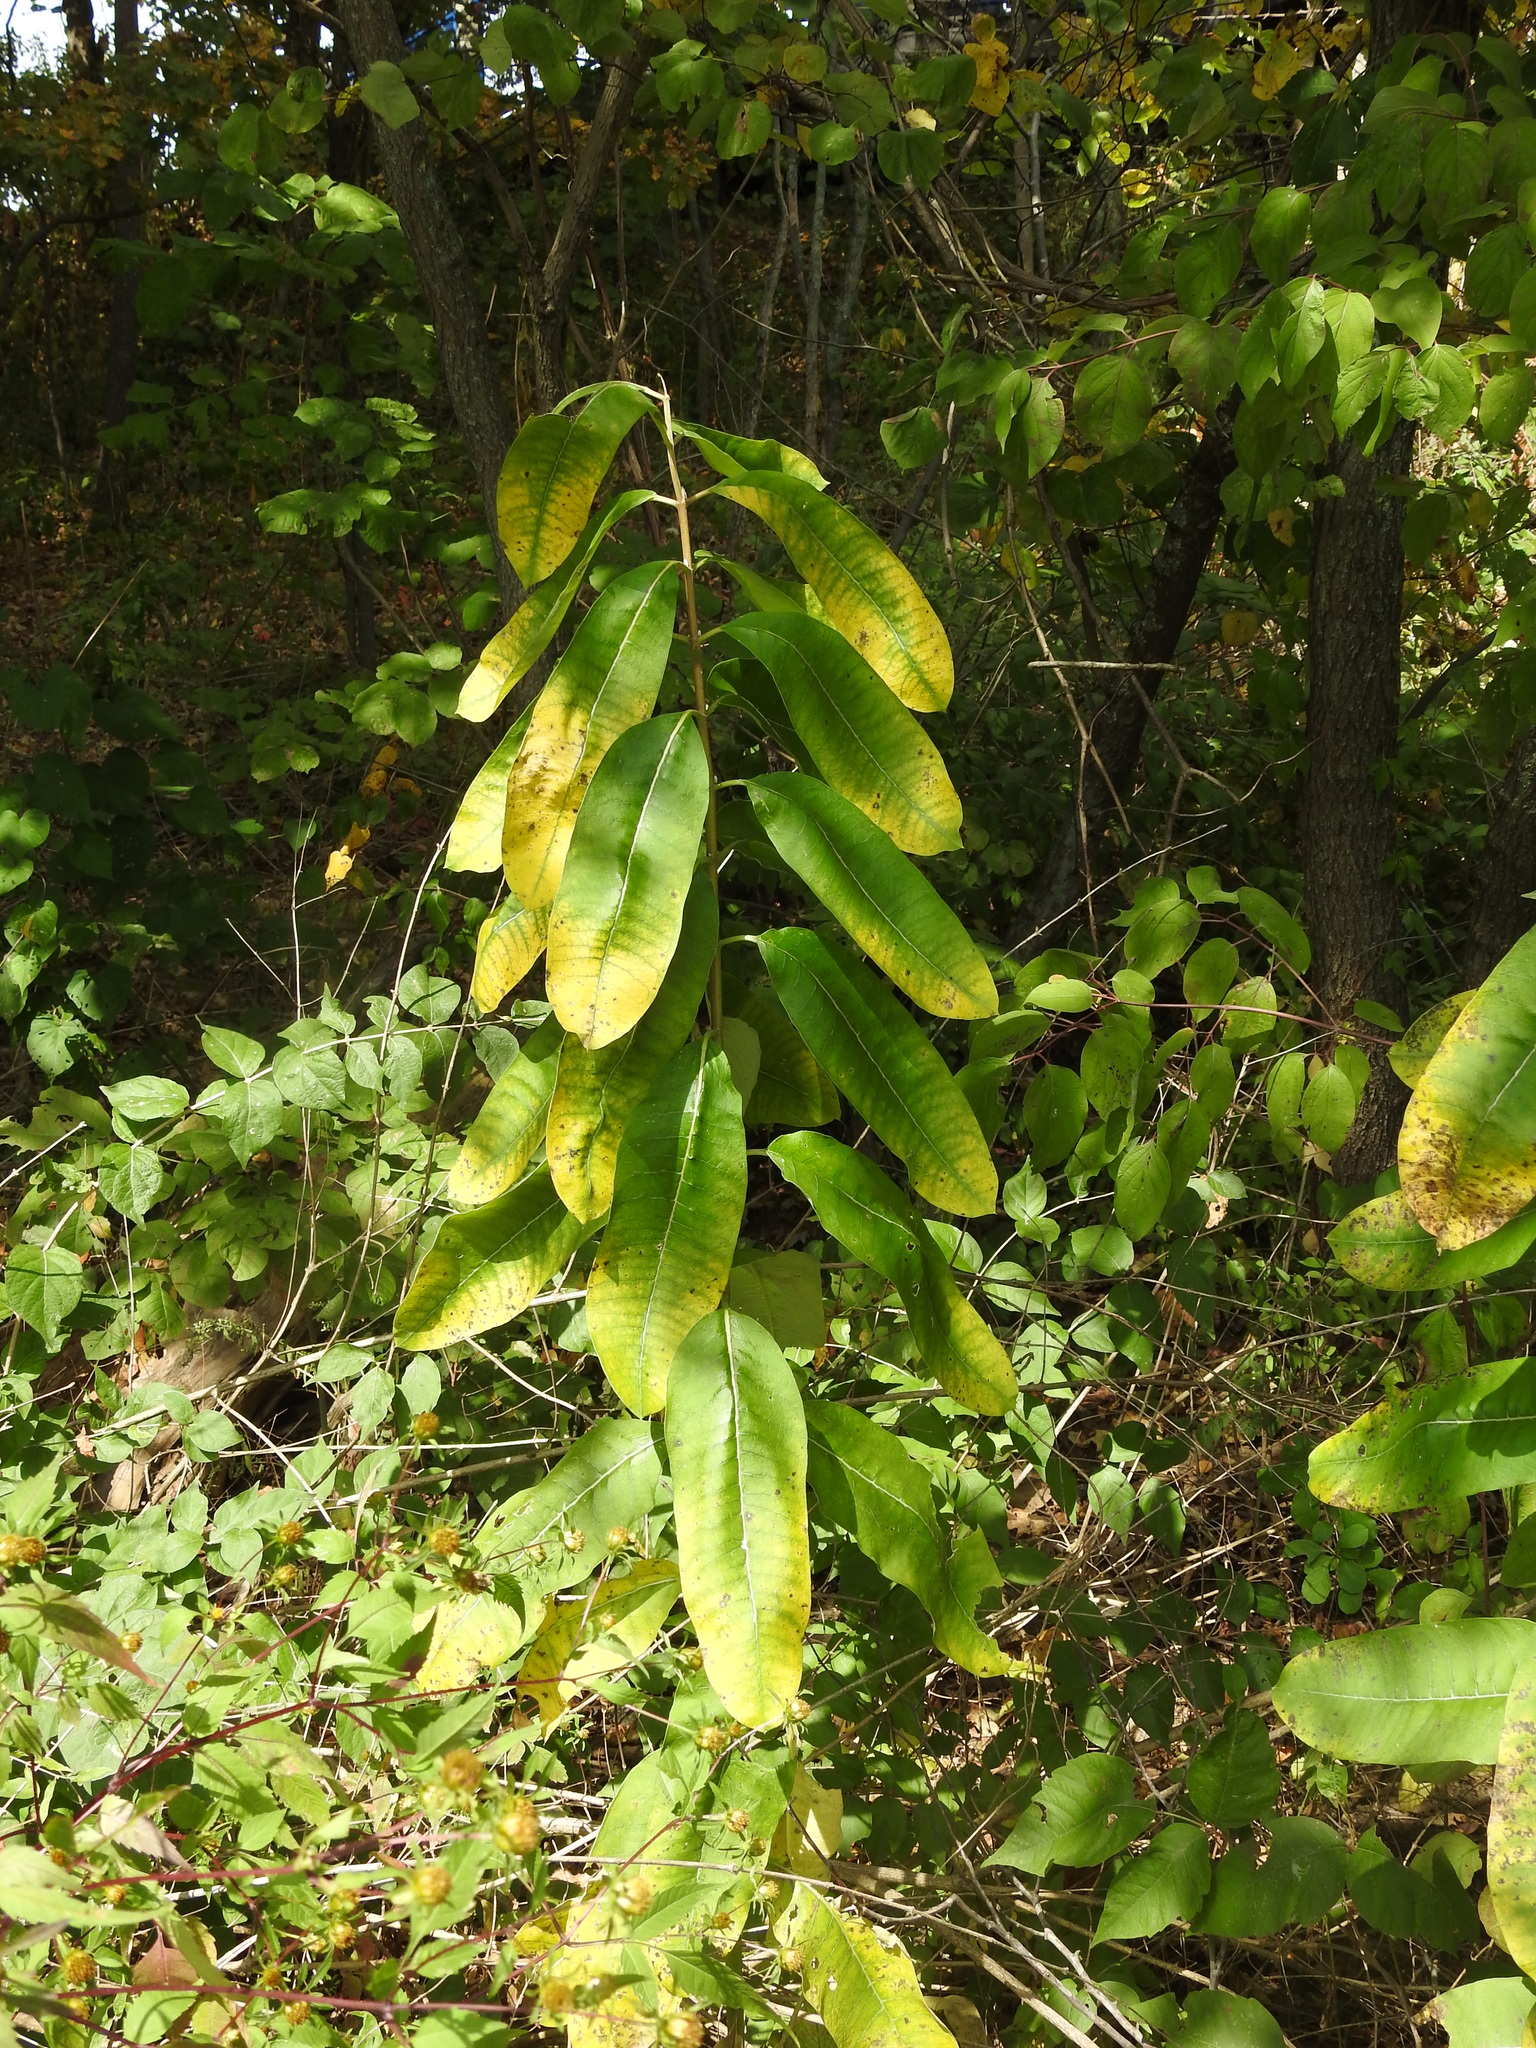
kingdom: Plantae
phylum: Tracheophyta
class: Magnoliopsida
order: Gentianales
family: Apocynaceae
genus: Asclepias
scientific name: Asclepias syriaca
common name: Common milkweed
